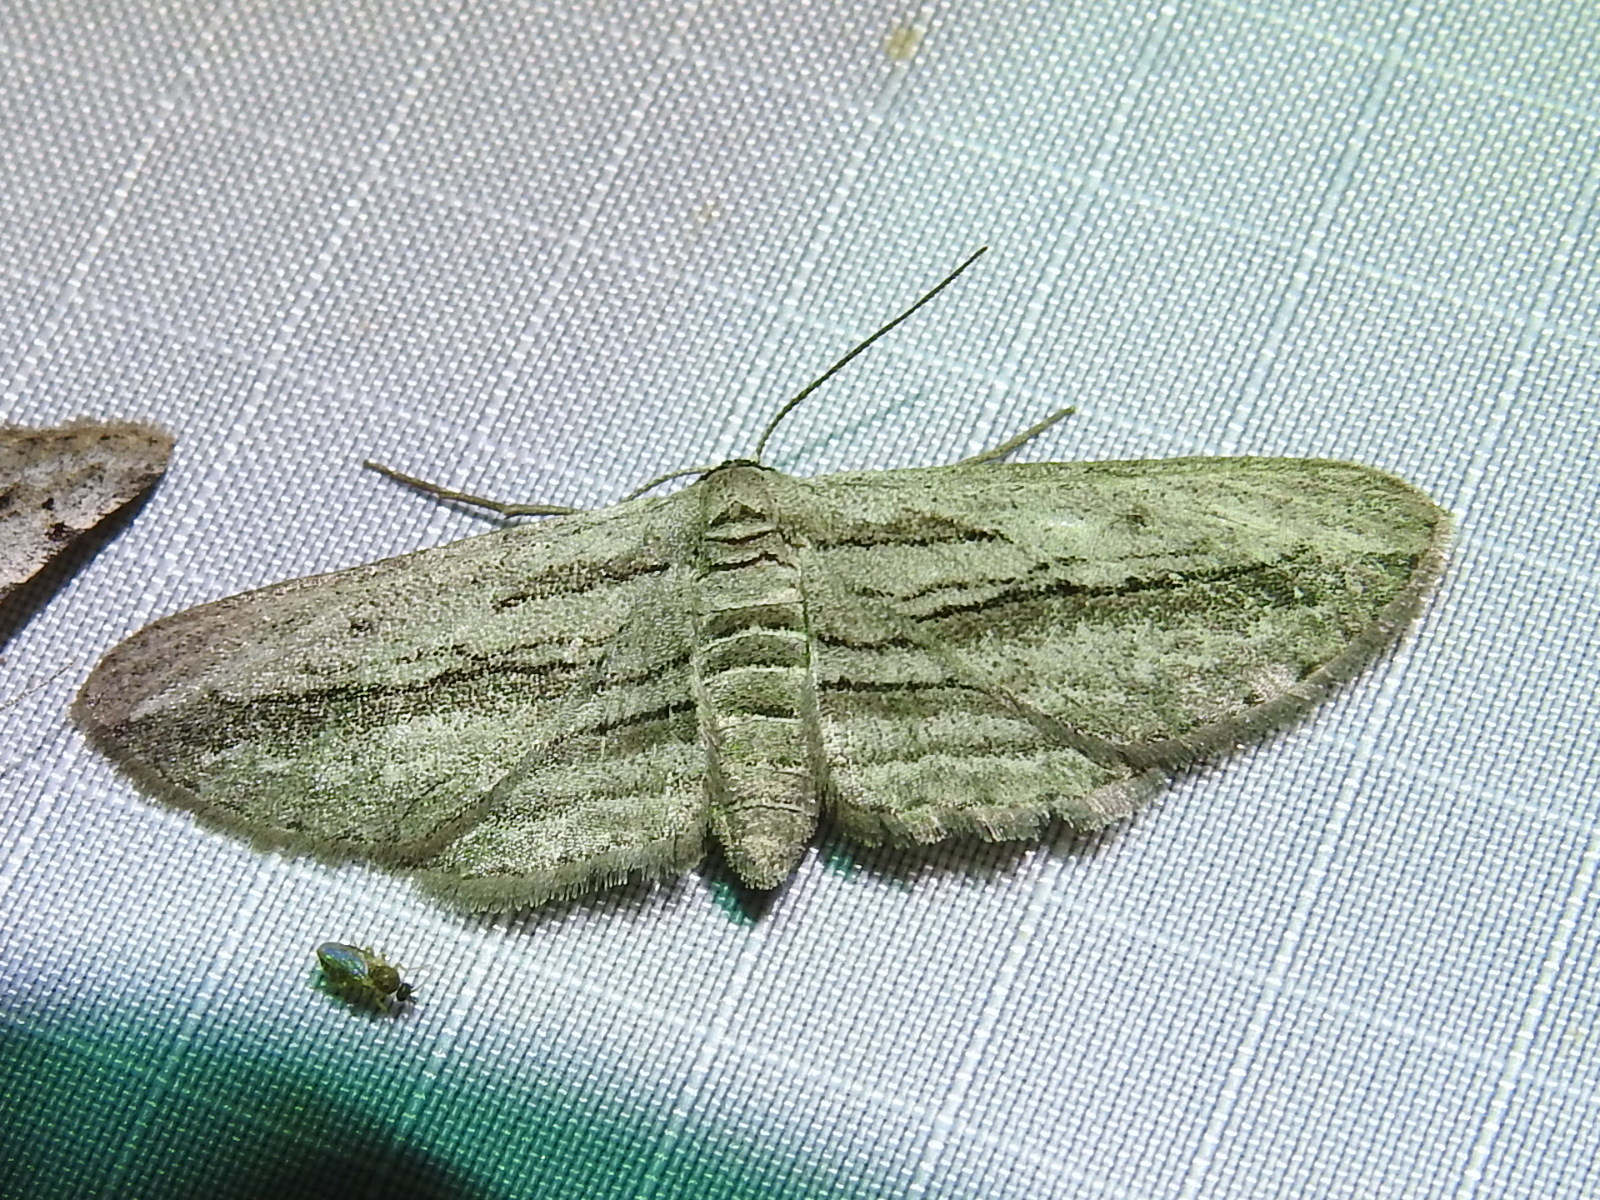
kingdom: Animalia
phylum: Arthropoda
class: Insecta
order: Lepidoptera
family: Geometridae
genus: Glena
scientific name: Glena quinquelinearia
